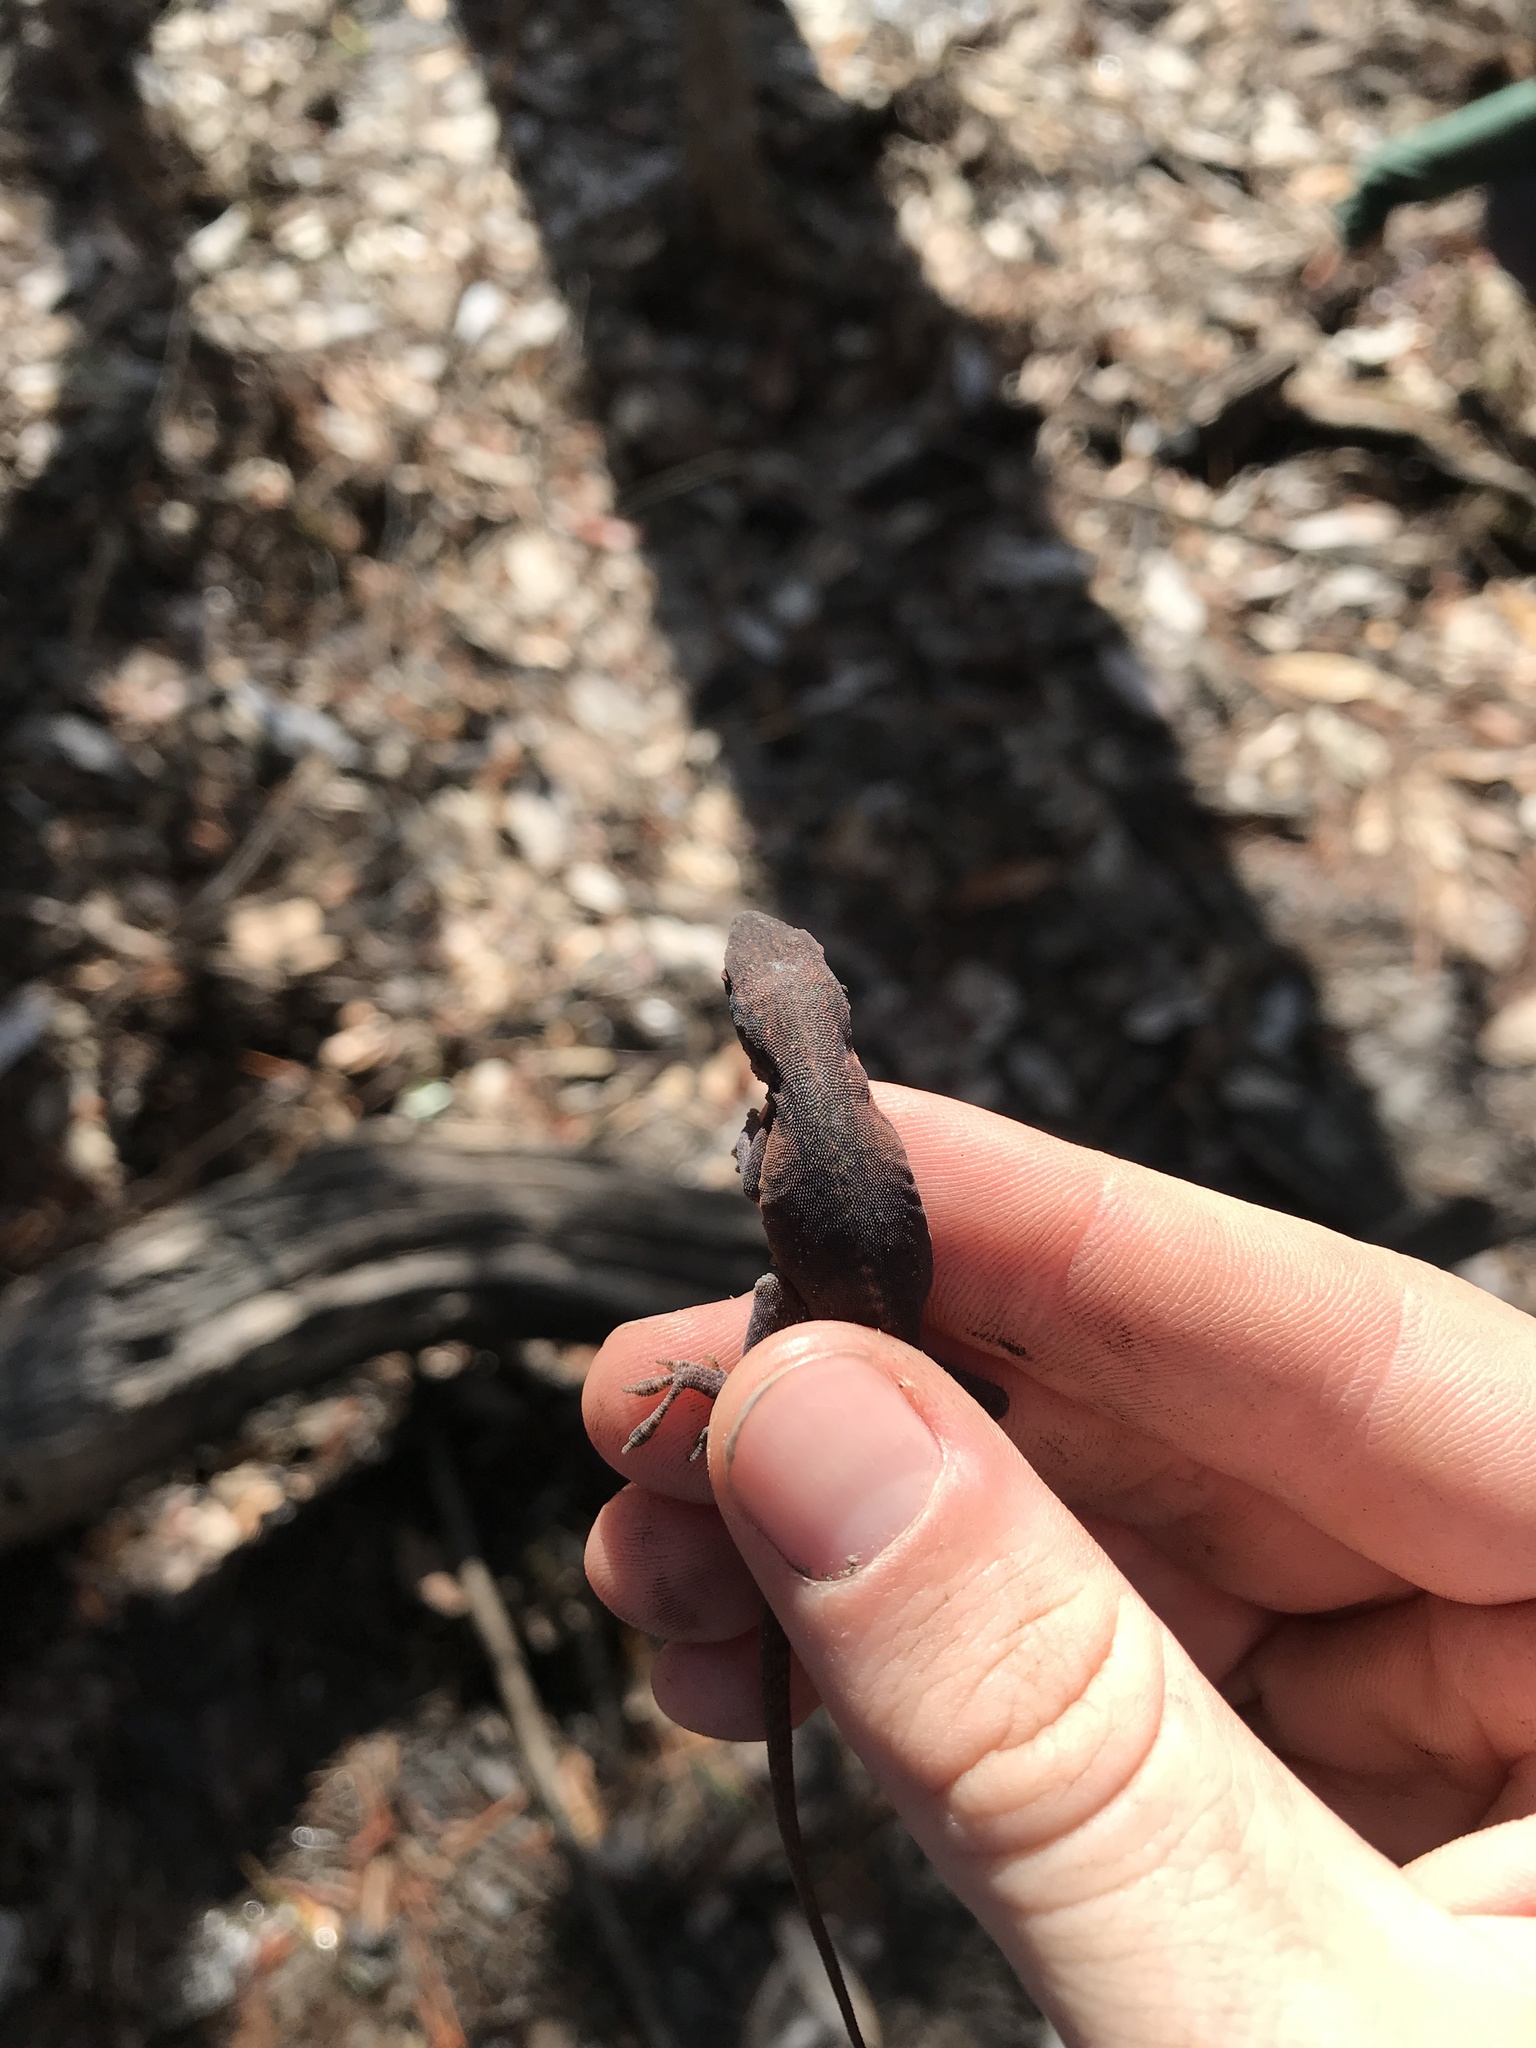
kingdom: Animalia
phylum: Chordata
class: Squamata
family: Dactyloidae
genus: Anolis
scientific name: Anolis carolinensis
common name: Green anole
